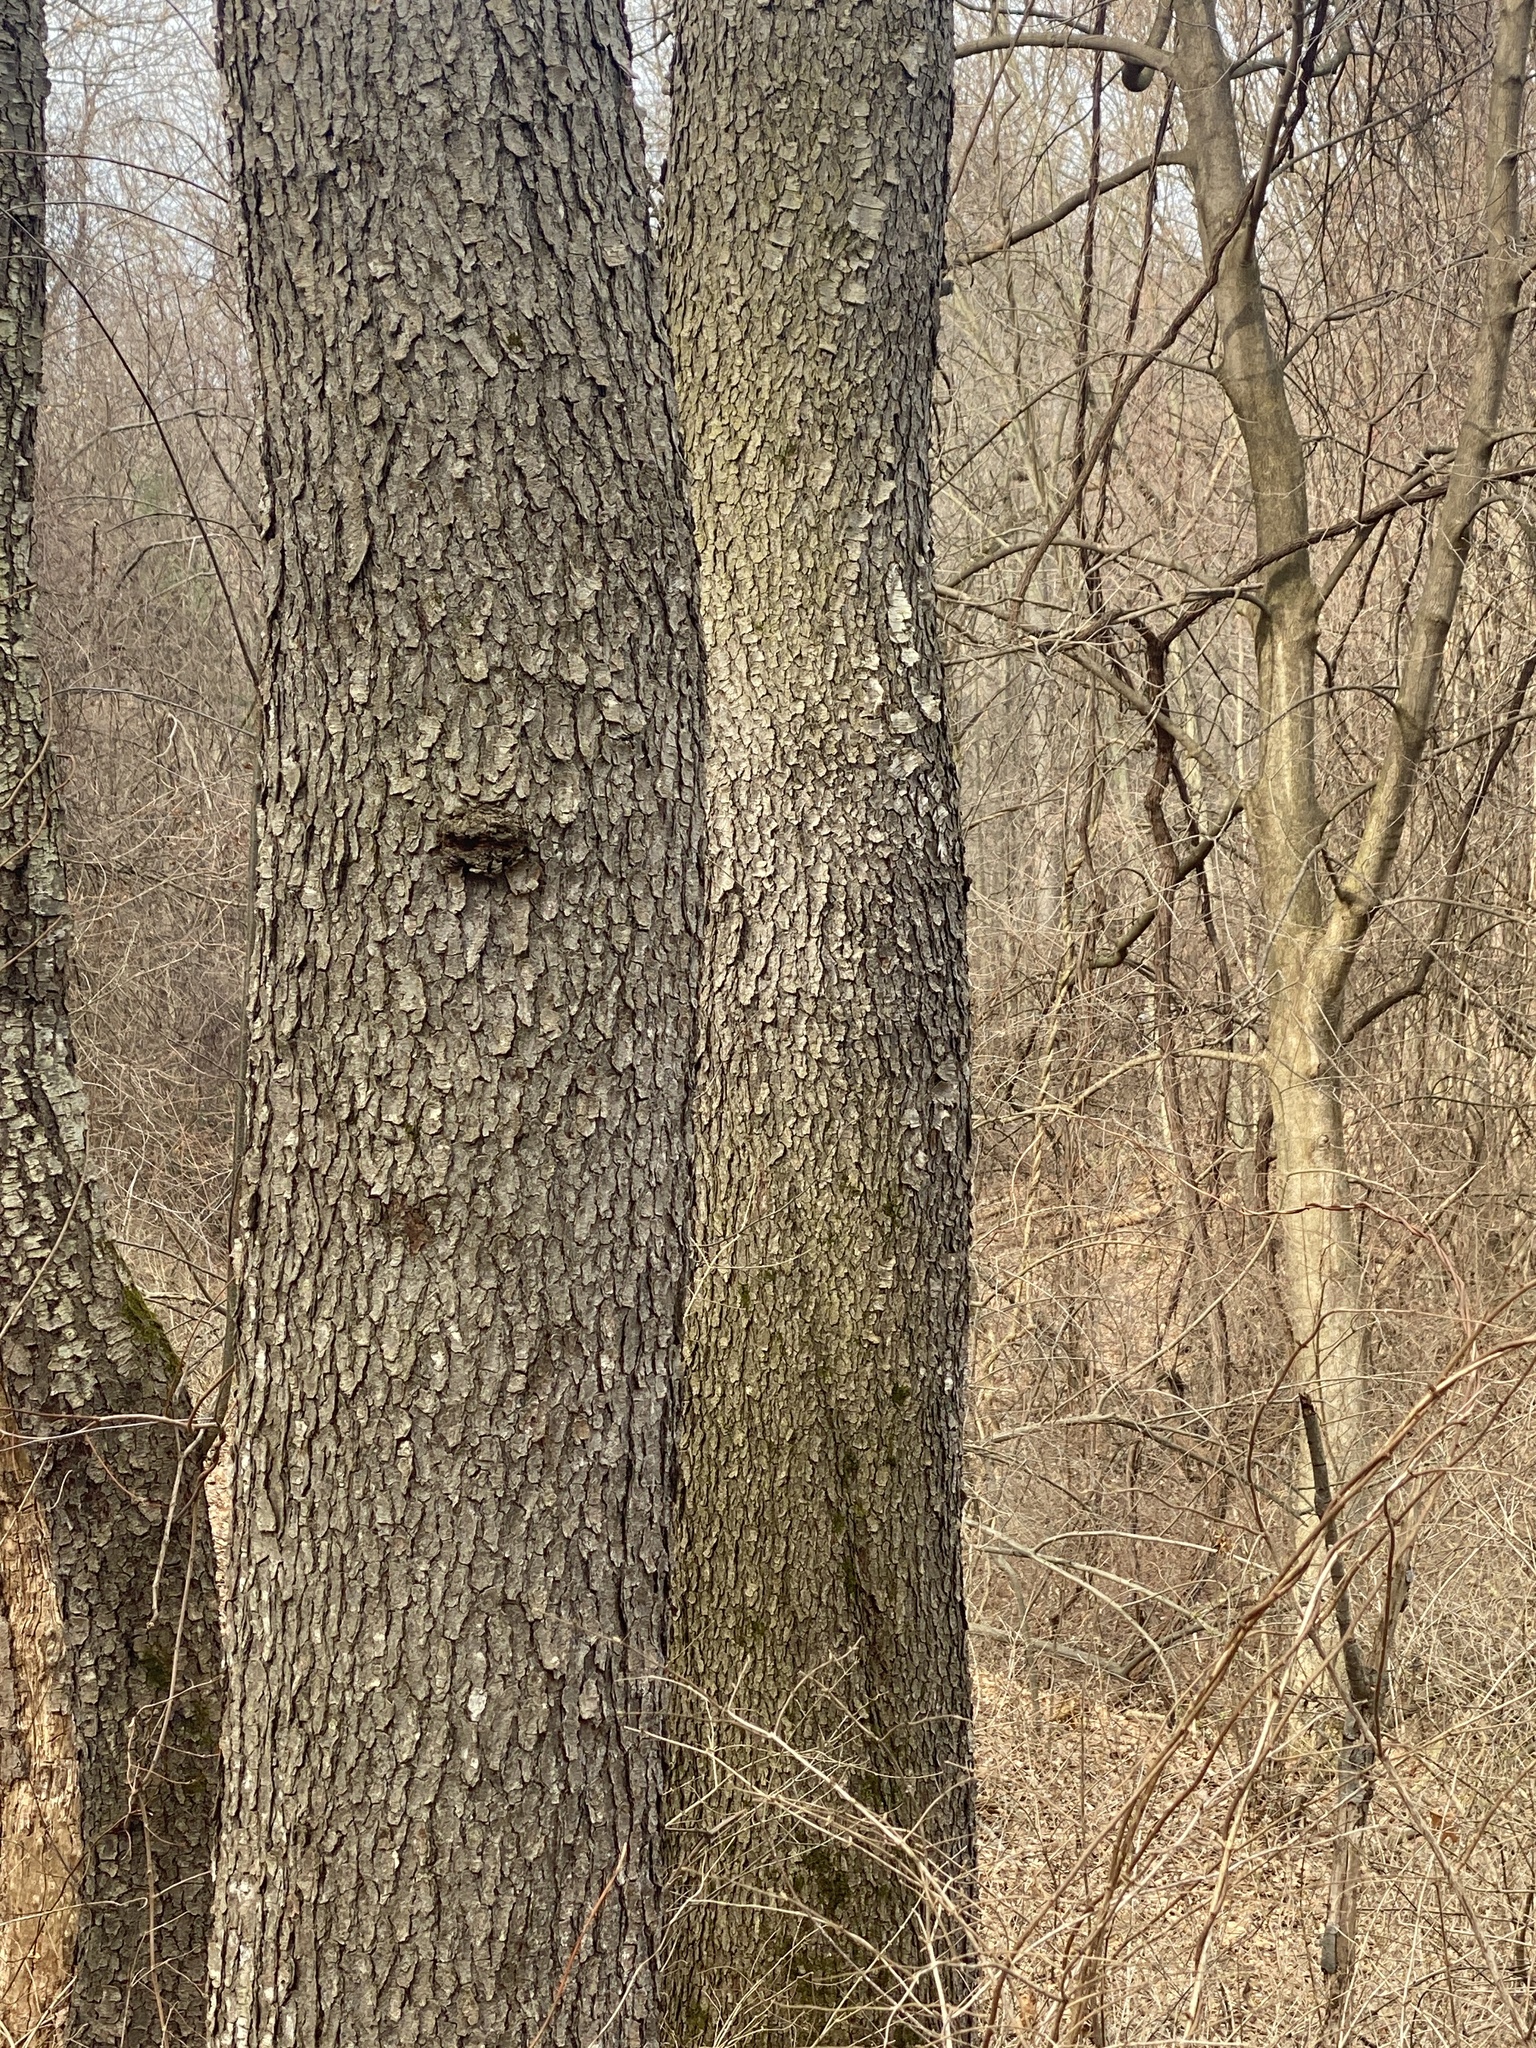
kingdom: Plantae
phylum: Tracheophyta
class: Magnoliopsida
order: Rosales
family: Rosaceae
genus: Prunus
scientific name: Prunus serotina
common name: Black cherry
